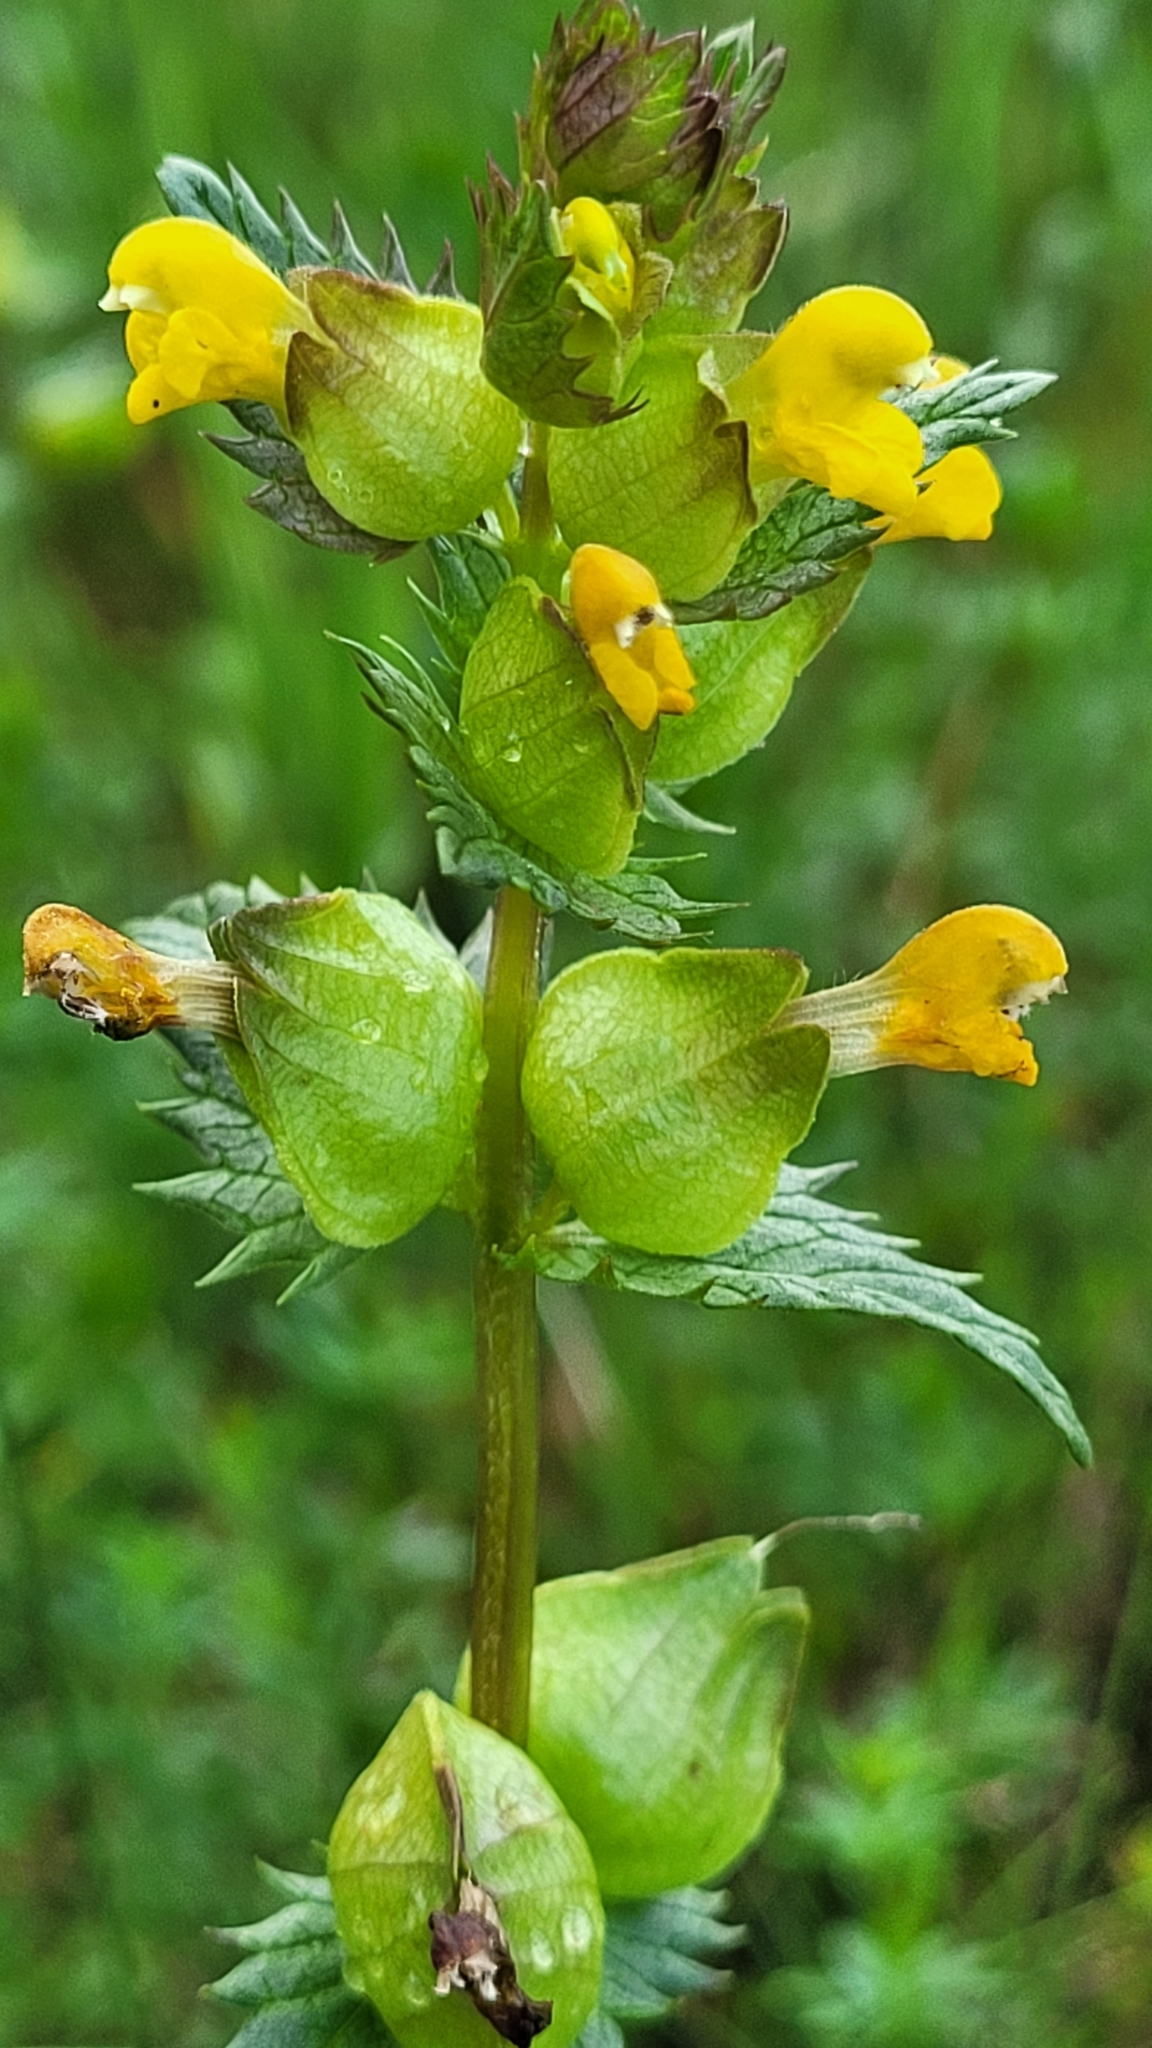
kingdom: Plantae
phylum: Tracheophyta
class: Magnoliopsida
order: Lamiales
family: Orobanchaceae
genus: Rhinanthus
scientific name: Rhinanthus minor
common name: Yellow-rattle
